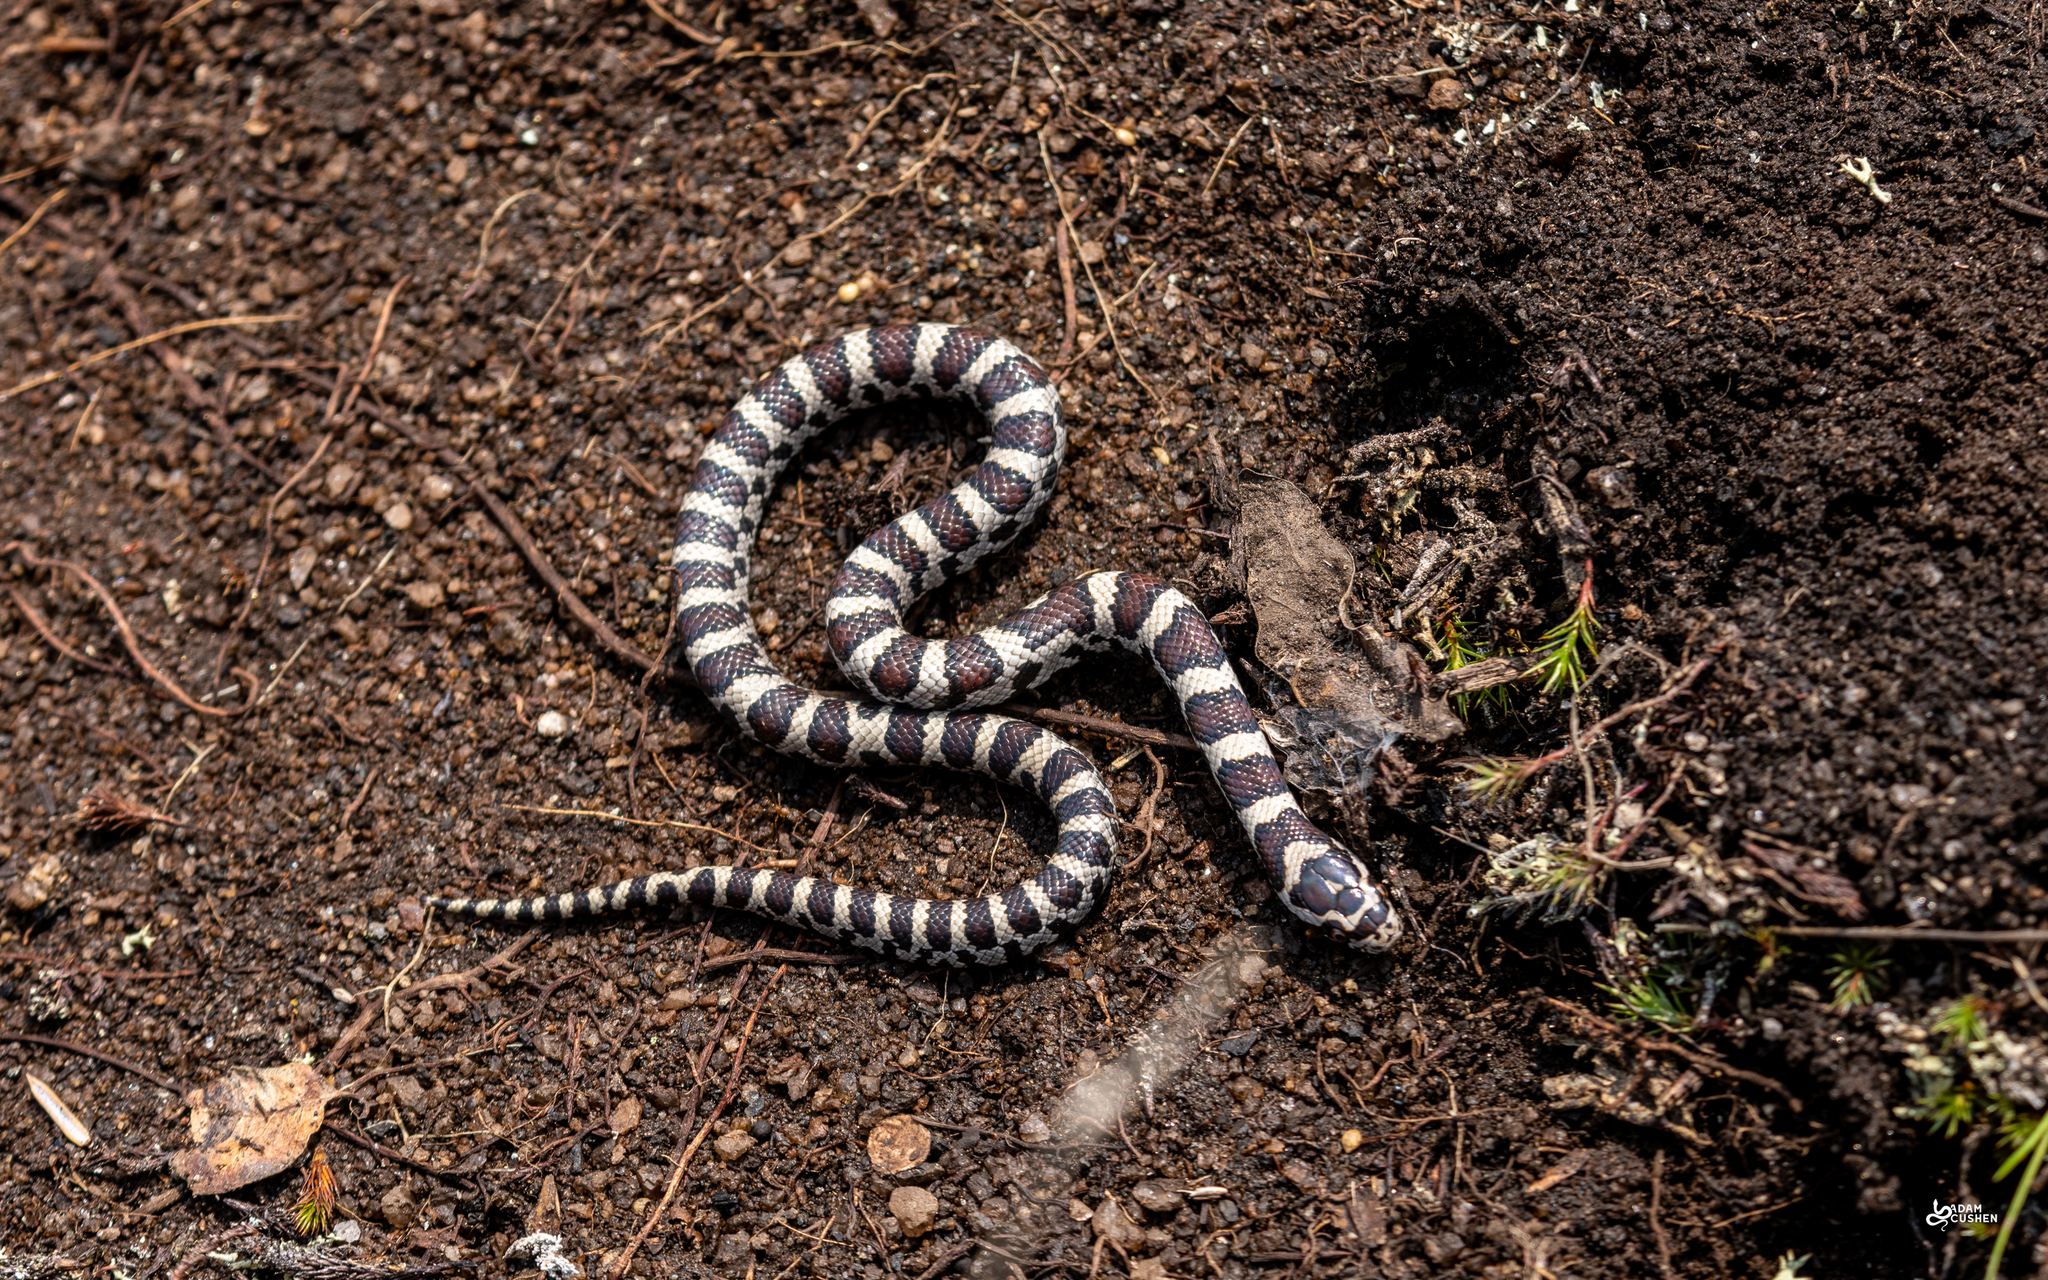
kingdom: Animalia
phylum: Chordata
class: Squamata
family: Colubridae
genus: Lampropeltis
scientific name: Lampropeltis triangulum
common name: Eastern milksnake
